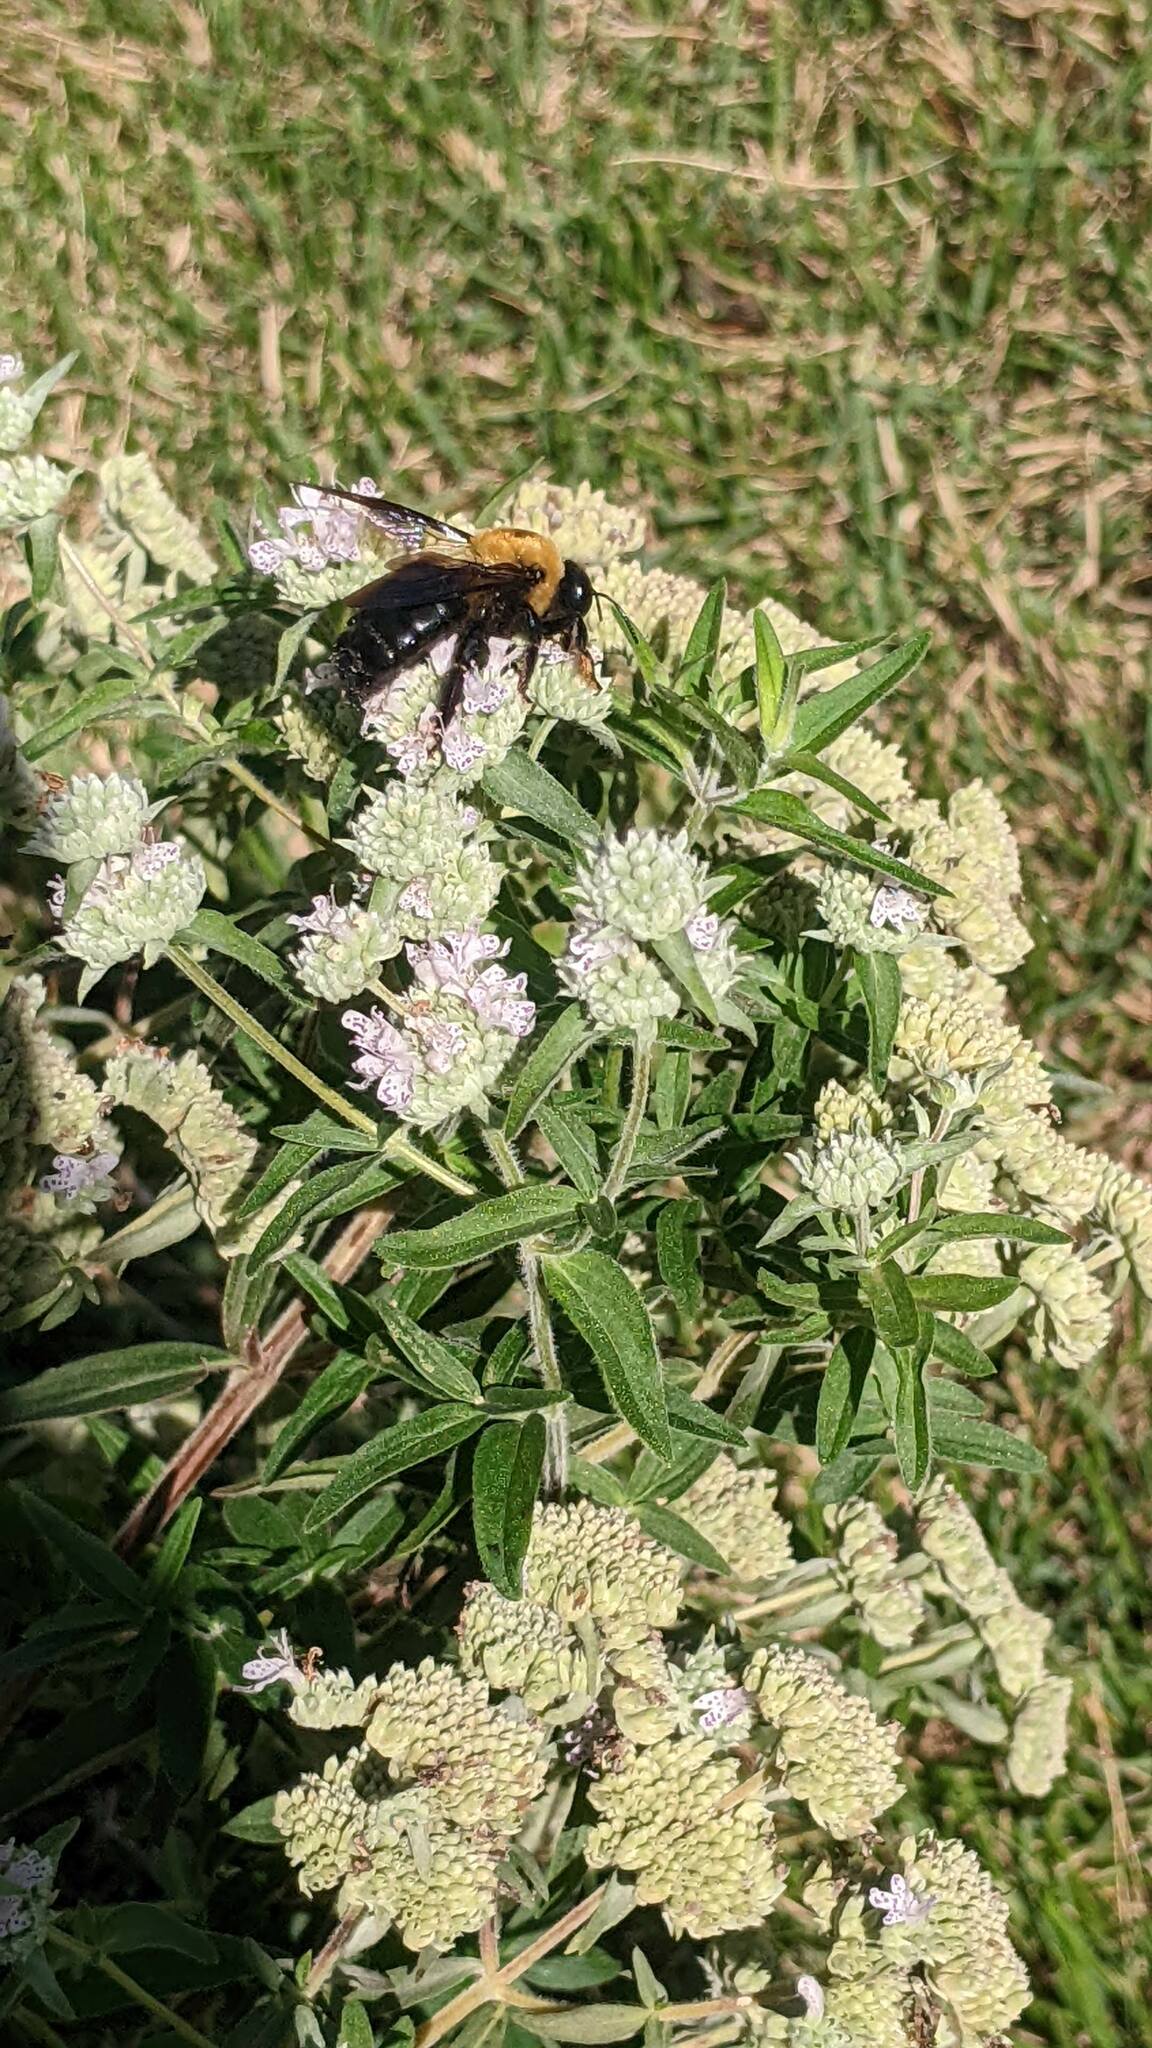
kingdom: Animalia
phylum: Arthropoda
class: Insecta
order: Hymenoptera
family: Apidae
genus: Xylocopa
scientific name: Xylocopa virginica
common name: Carpenter bee
